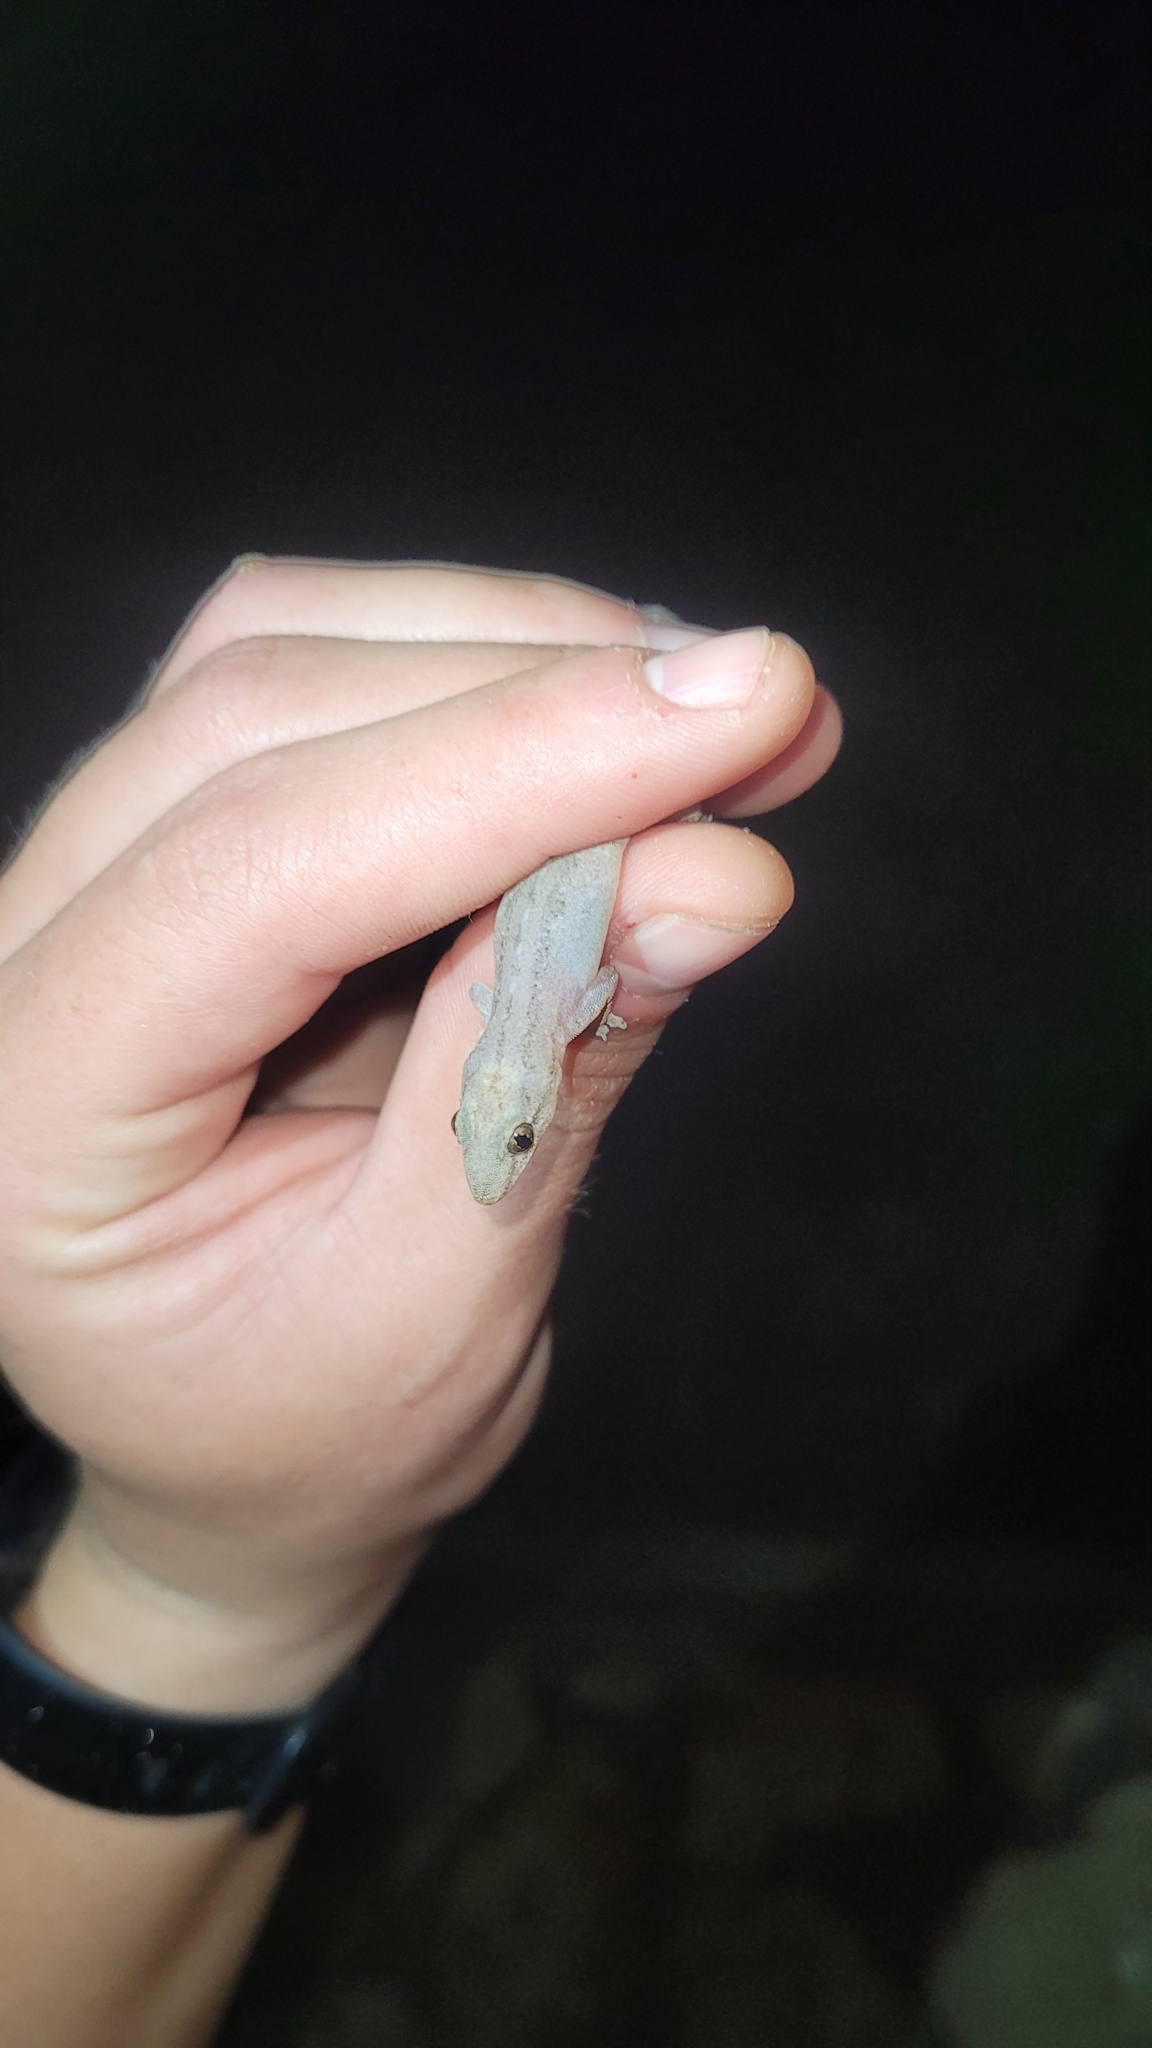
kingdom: Animalia
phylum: Chordata
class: Squamata
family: Gekkonidae
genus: Hemidactylus
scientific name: Hemidactylus frenatus
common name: Common house gecko
